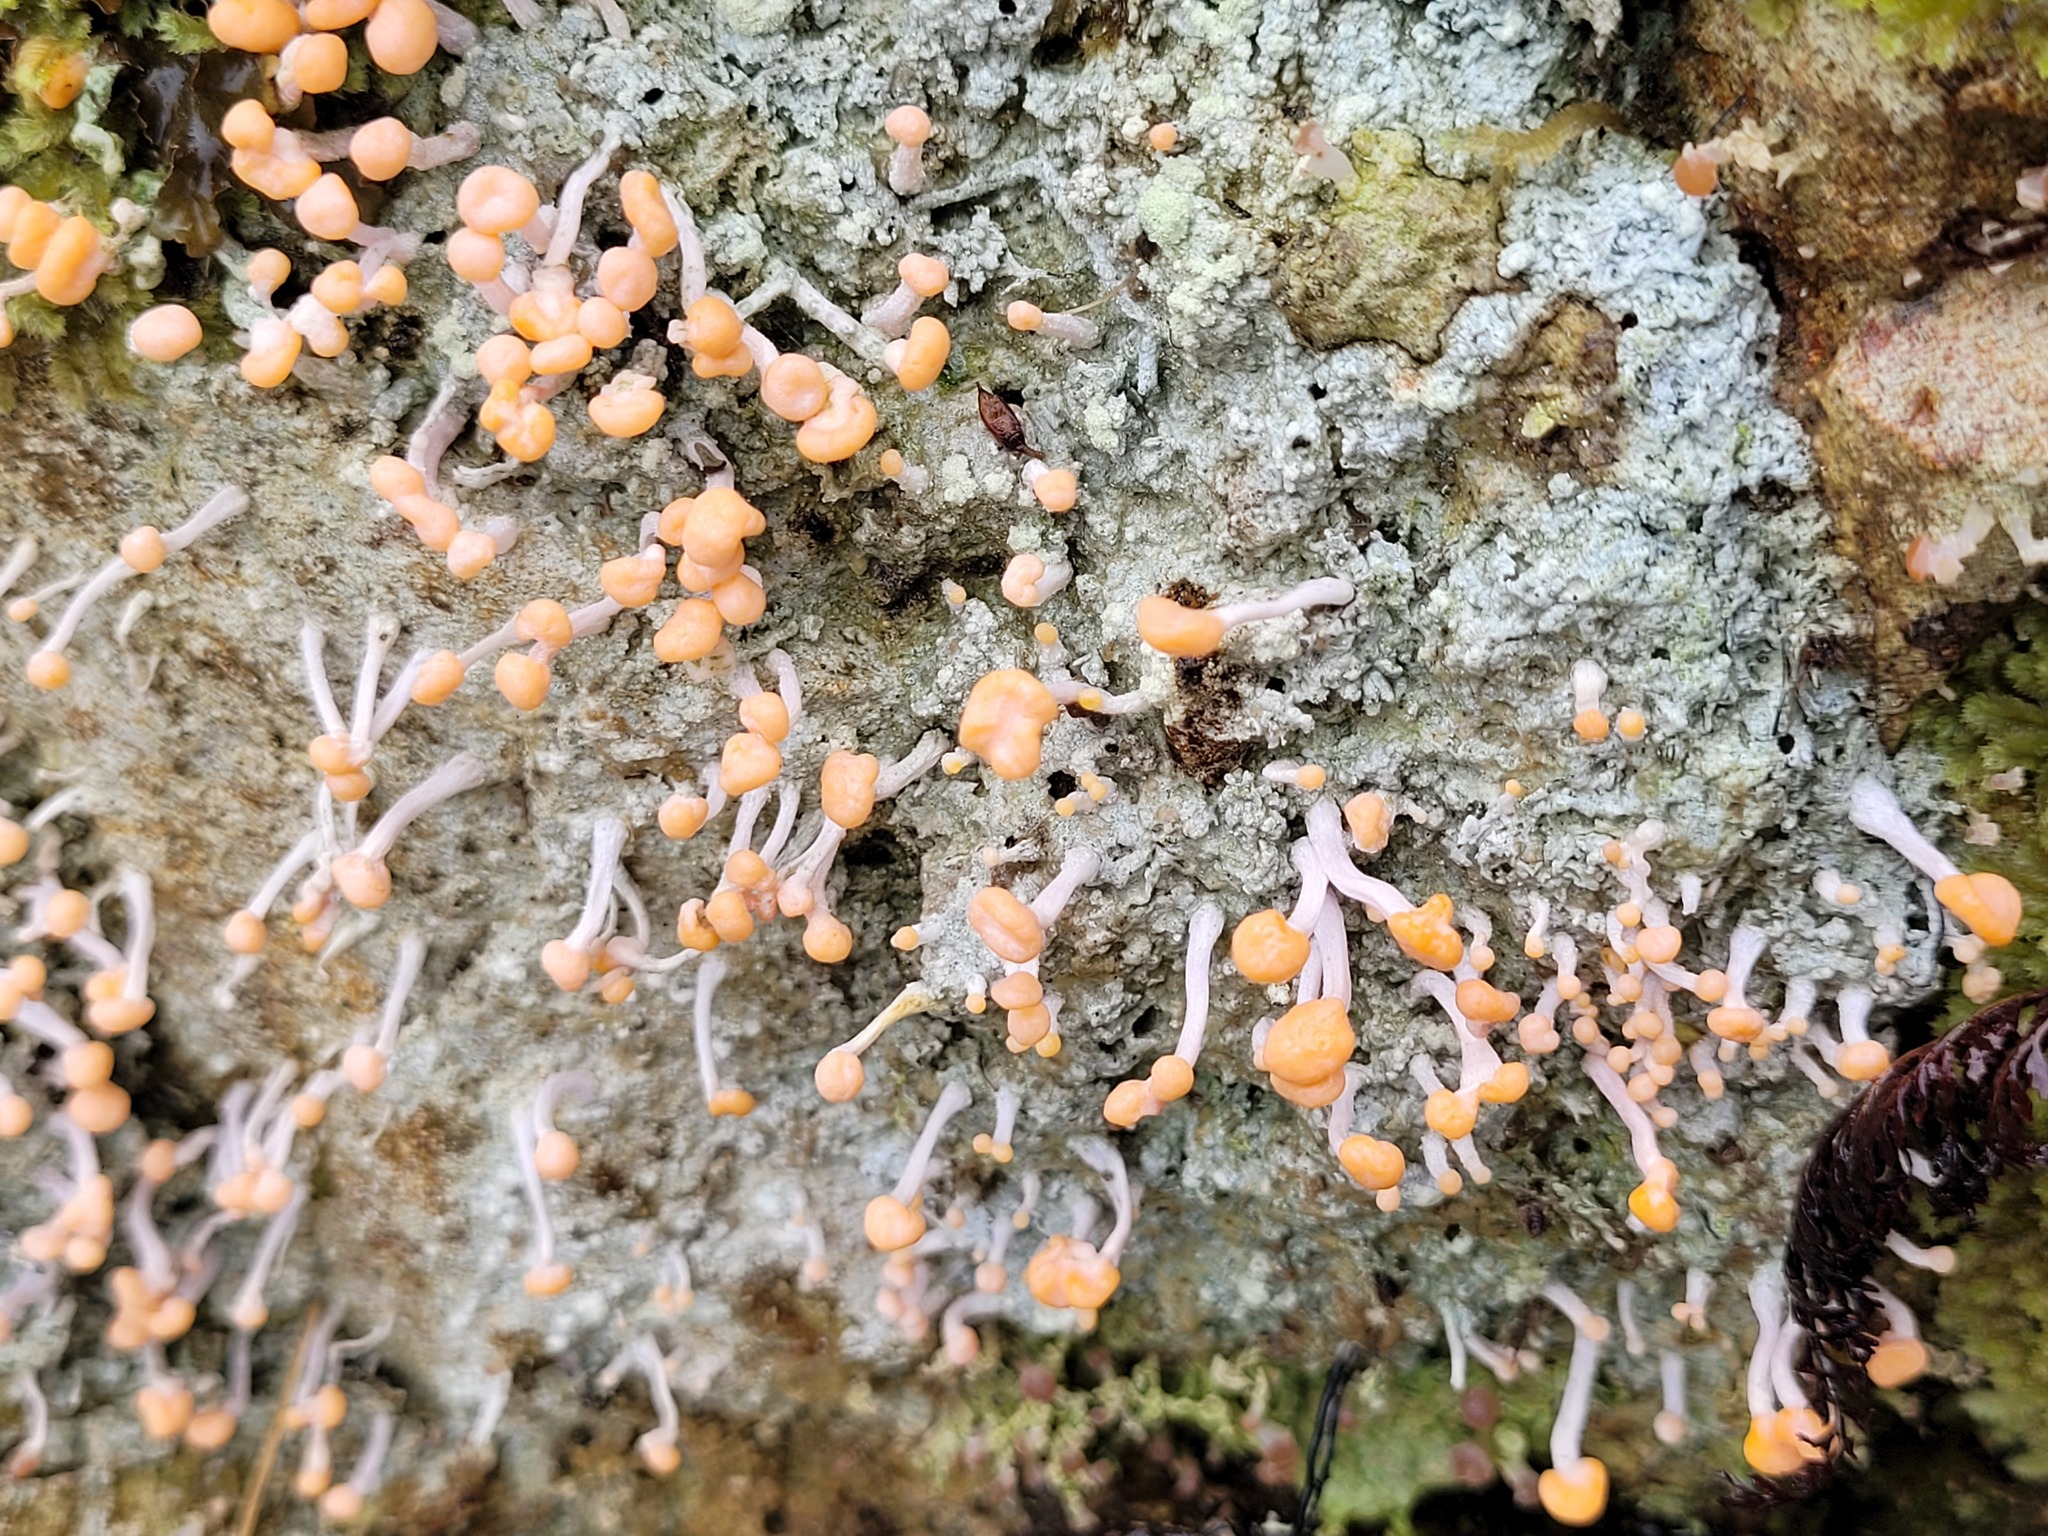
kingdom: Fungi
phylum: Ascomycota
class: Lecanoromycetes
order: Pertusariales
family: Icmadophilaceae
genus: Dibaeis
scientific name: Dibaeis arcuata
